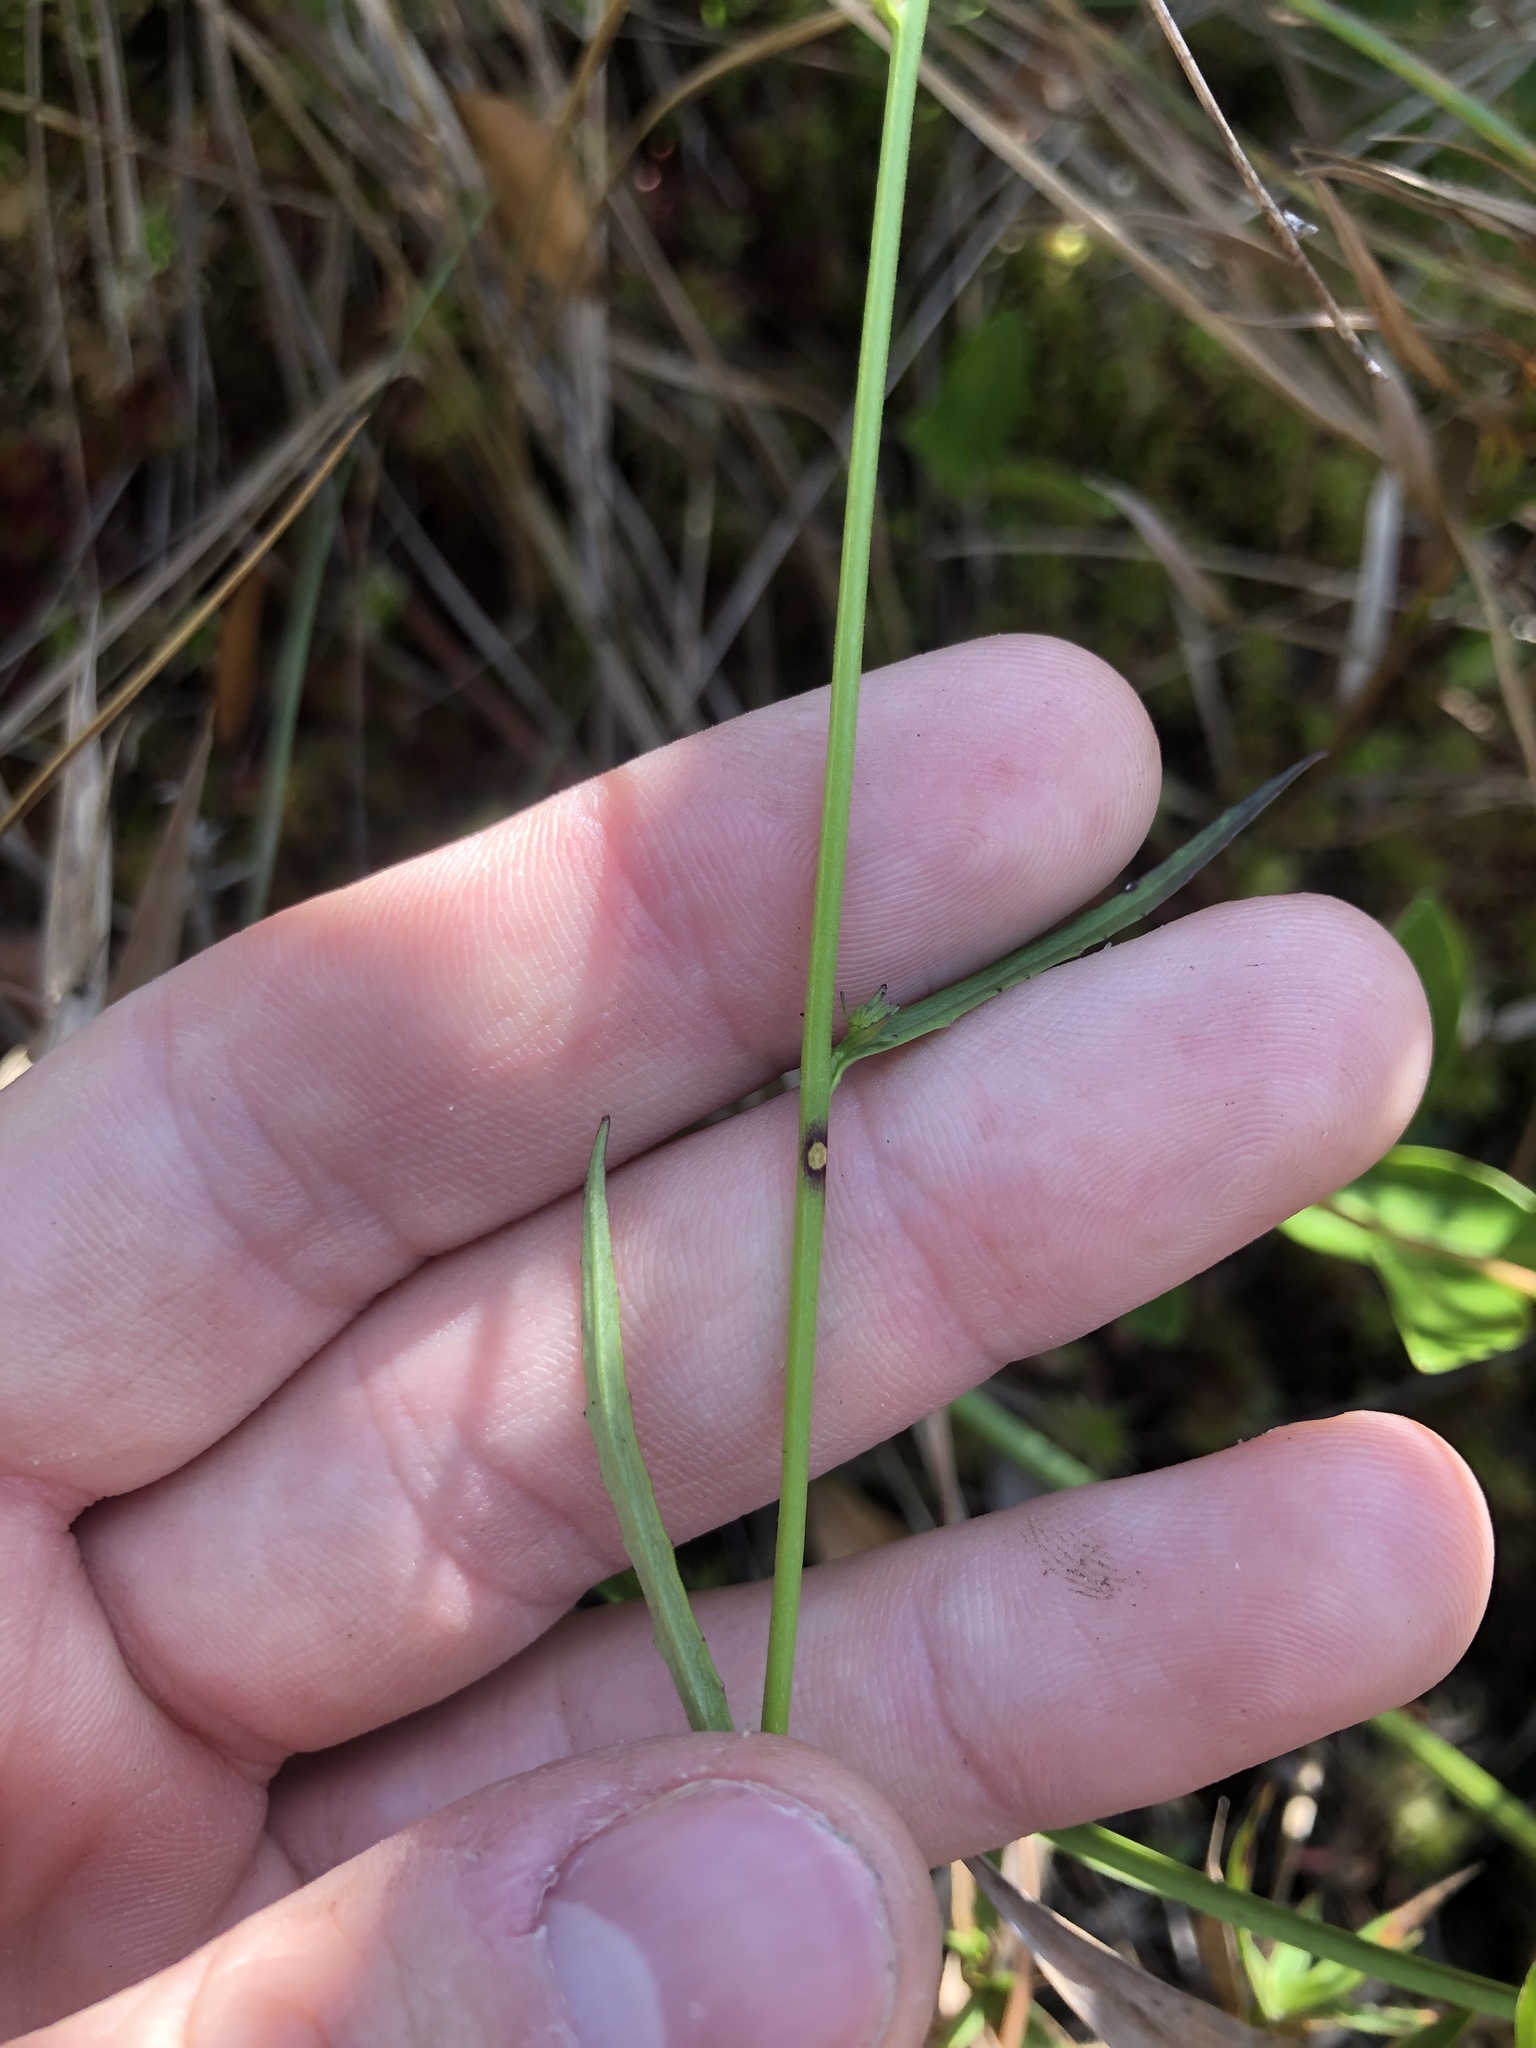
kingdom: Plantae
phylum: Tracheophyta
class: Magnoliopsida
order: Asterales
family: Campanulaceae
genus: Lobelia
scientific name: Lobelia batsonii
